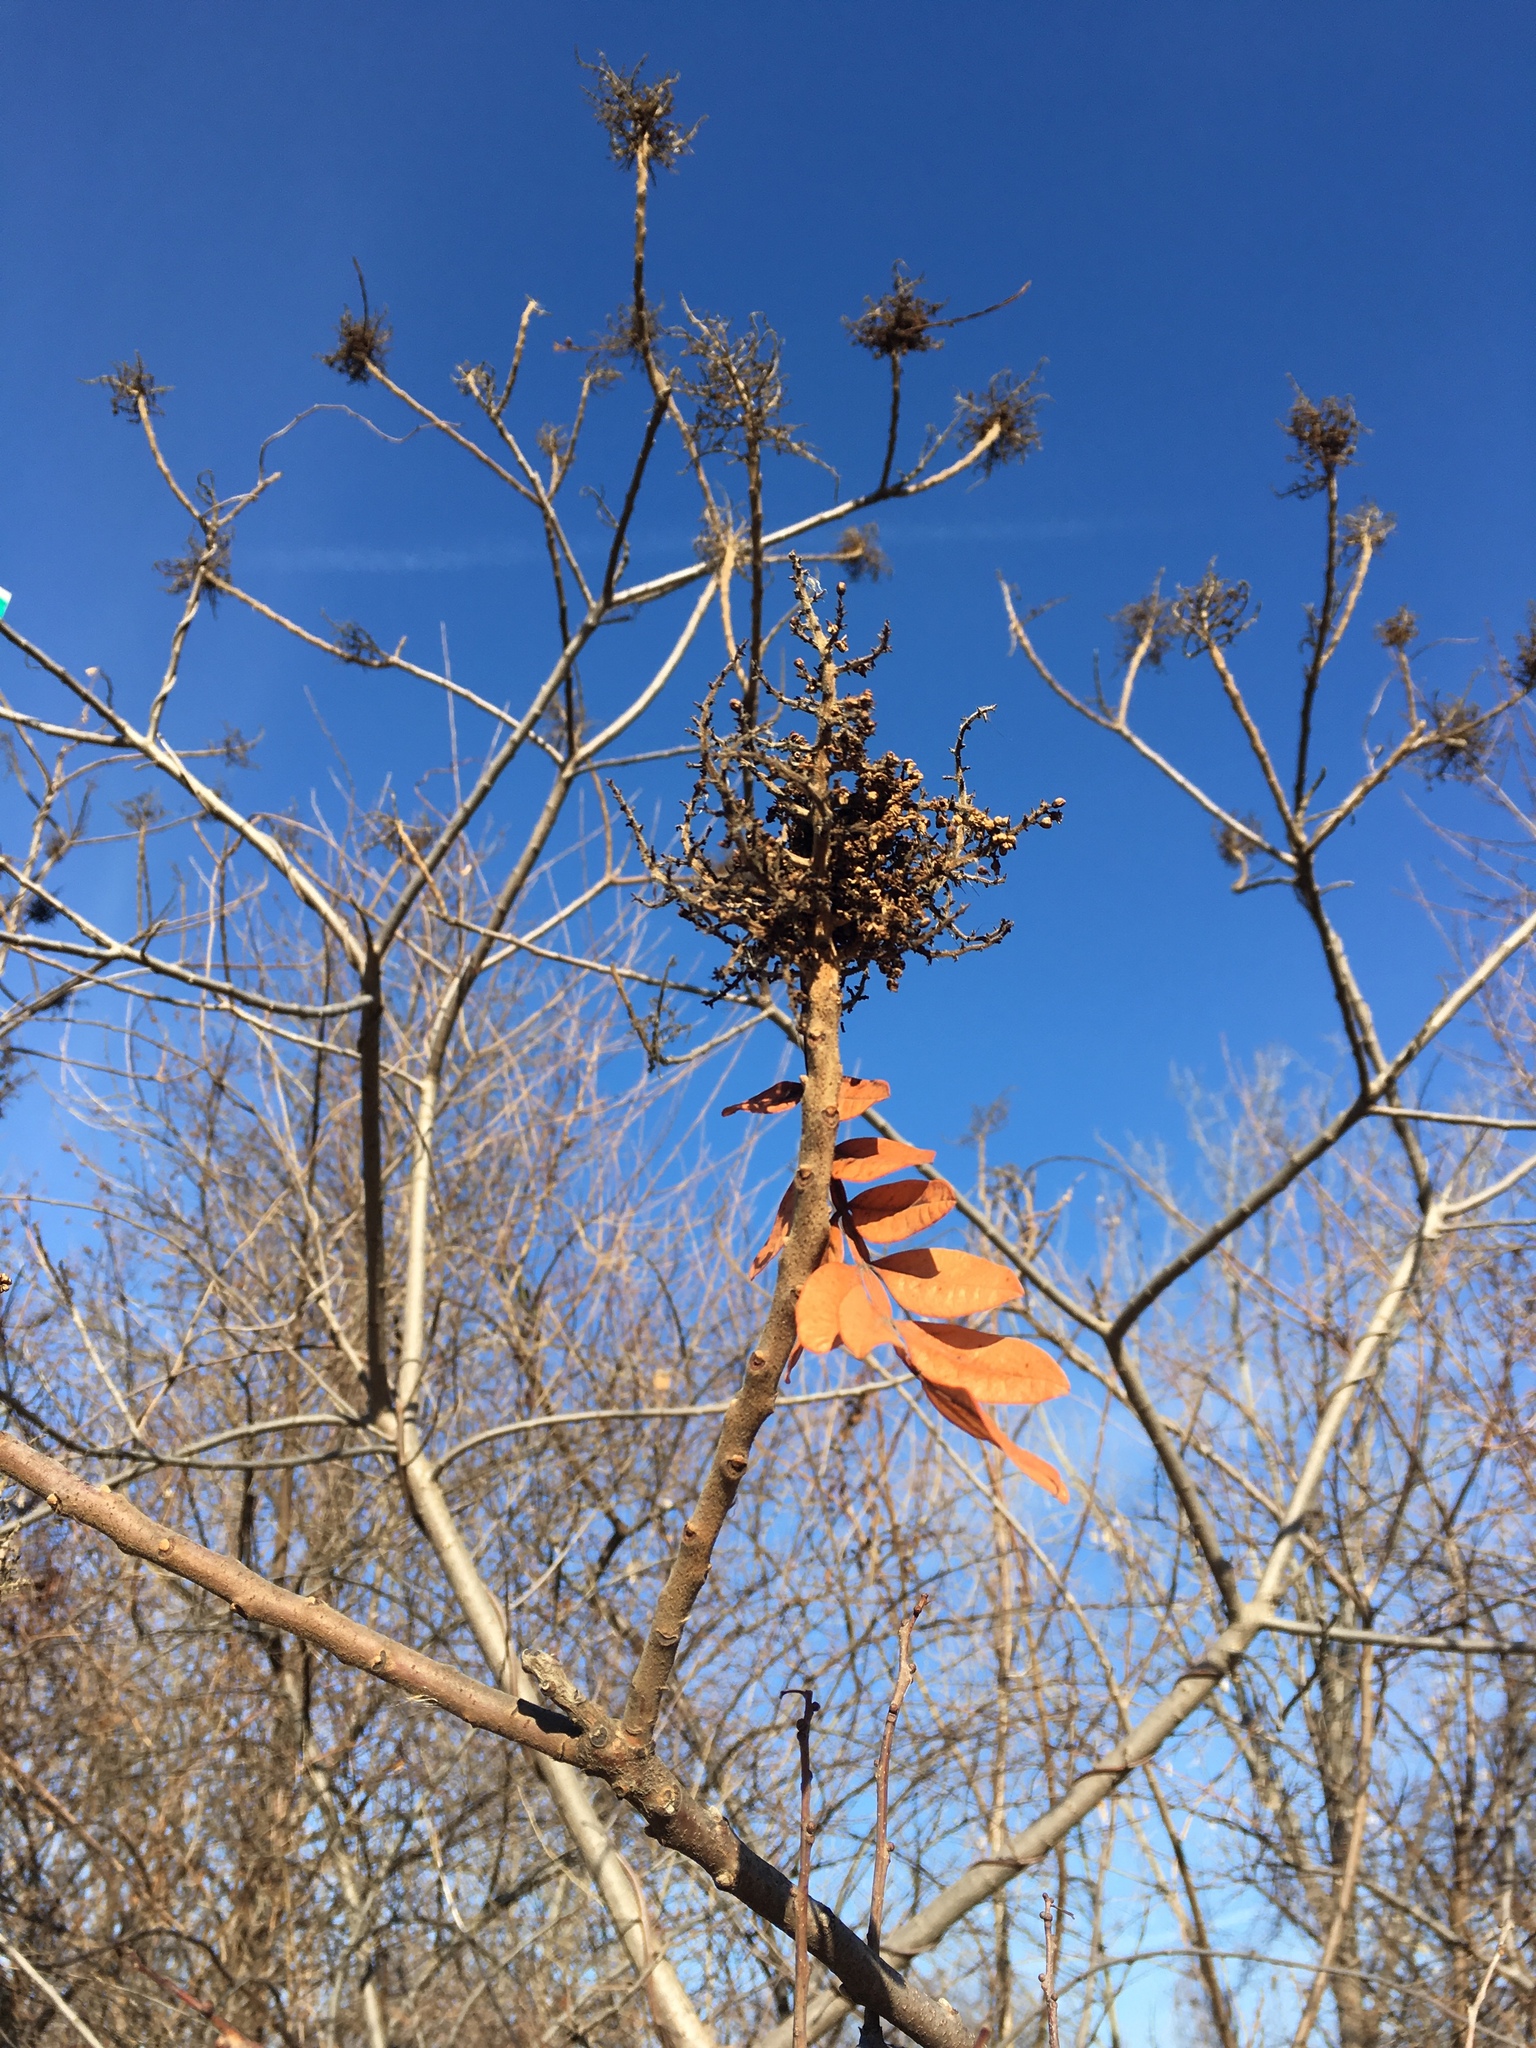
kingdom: Plantae
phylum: Tracheophyta
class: Magnoliopsida
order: Sapindales
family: Anacardiaceae
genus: Rhus
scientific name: Rhus copallina
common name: Shining sumac
